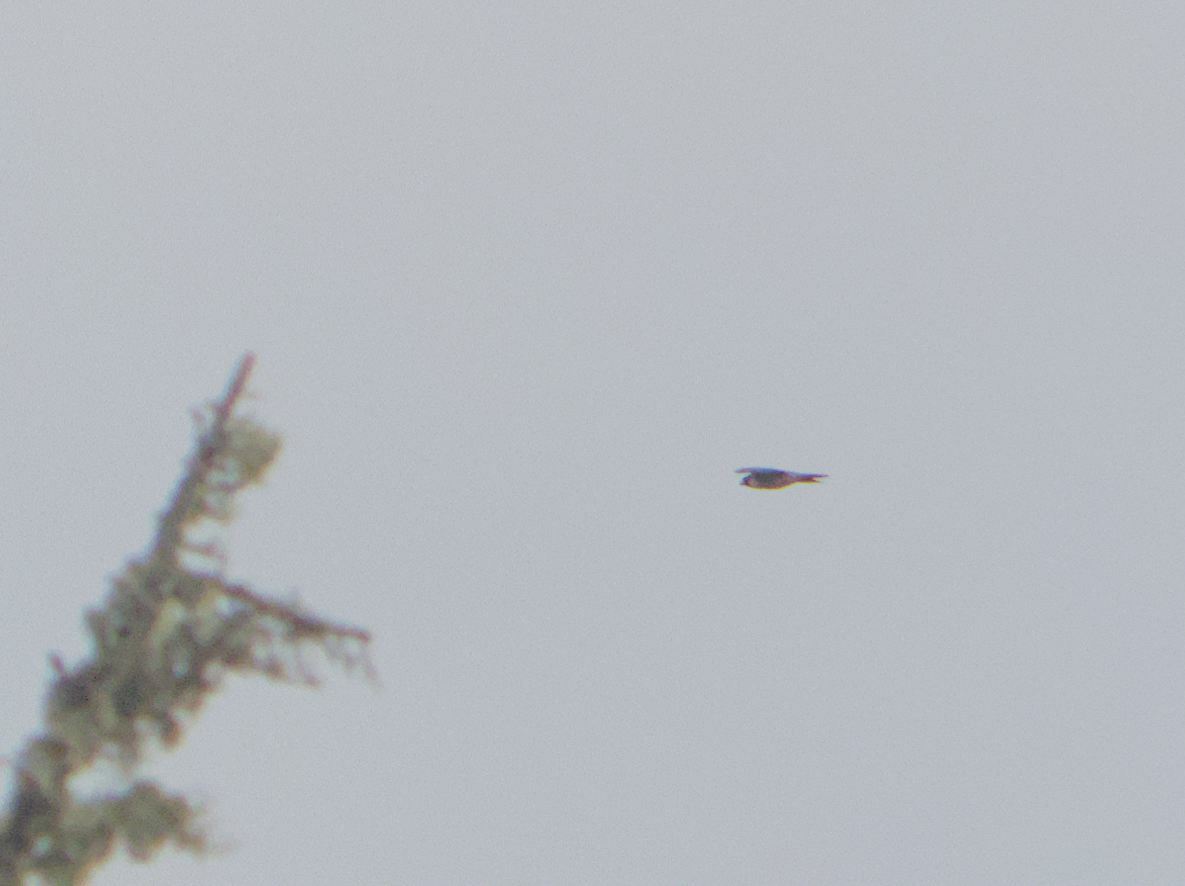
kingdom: Animalia
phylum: Chordata
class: Aves
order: Falconiformes
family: Falconidae
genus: Falco
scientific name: Falco peregrinus
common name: Peregrine falcon
